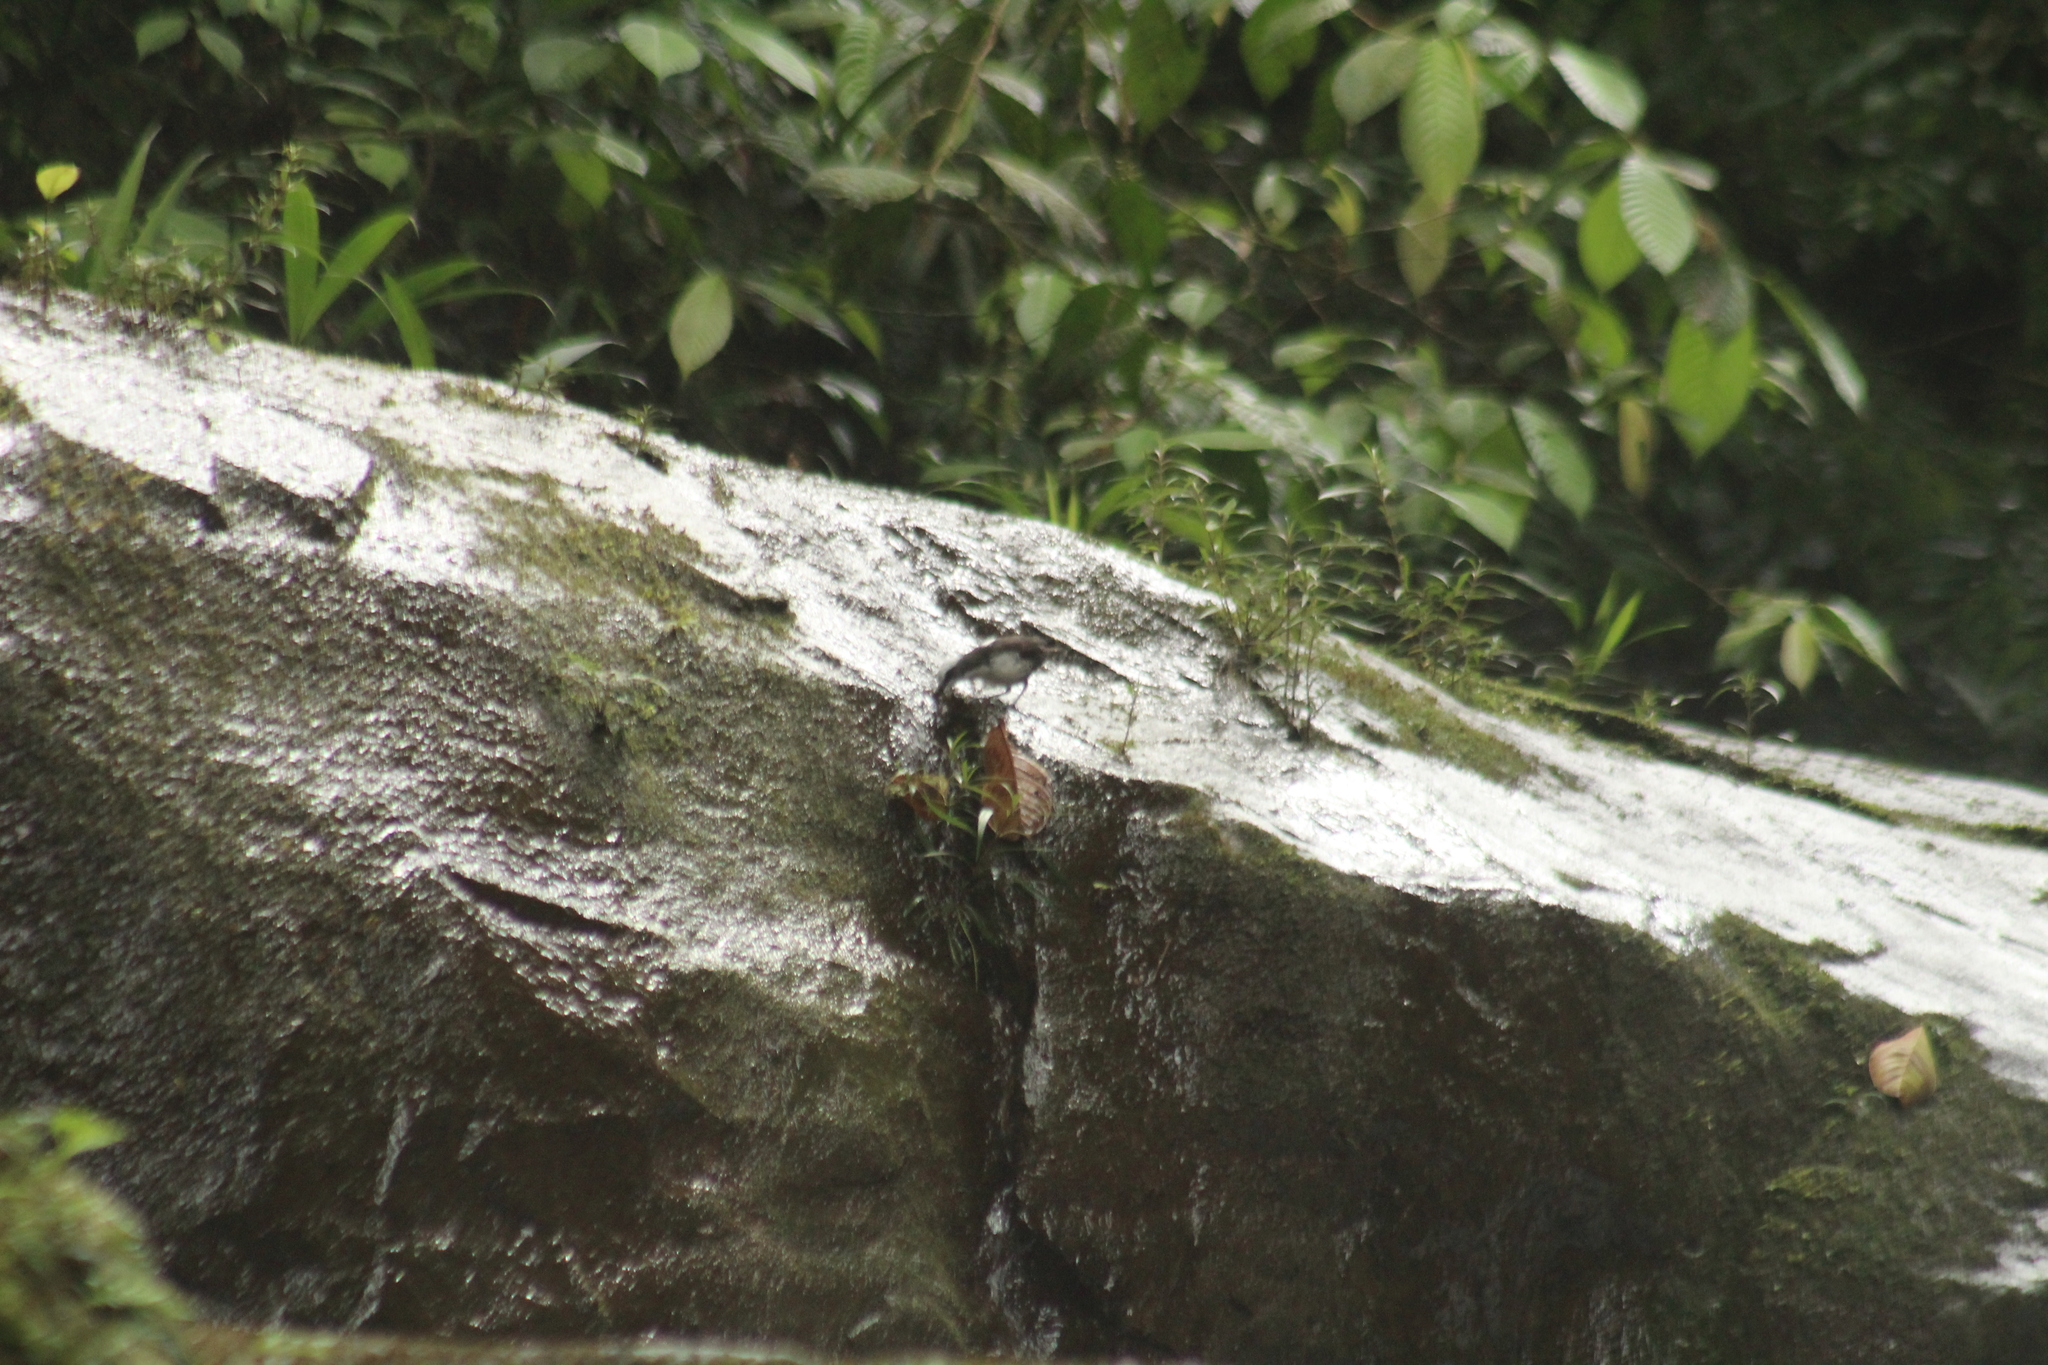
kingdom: Animalia
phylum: Chordata
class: Aves
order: Passeriformes
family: Cinclidae
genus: Cinclus
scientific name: Cinclus leucocephalus
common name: White-capped dipper
